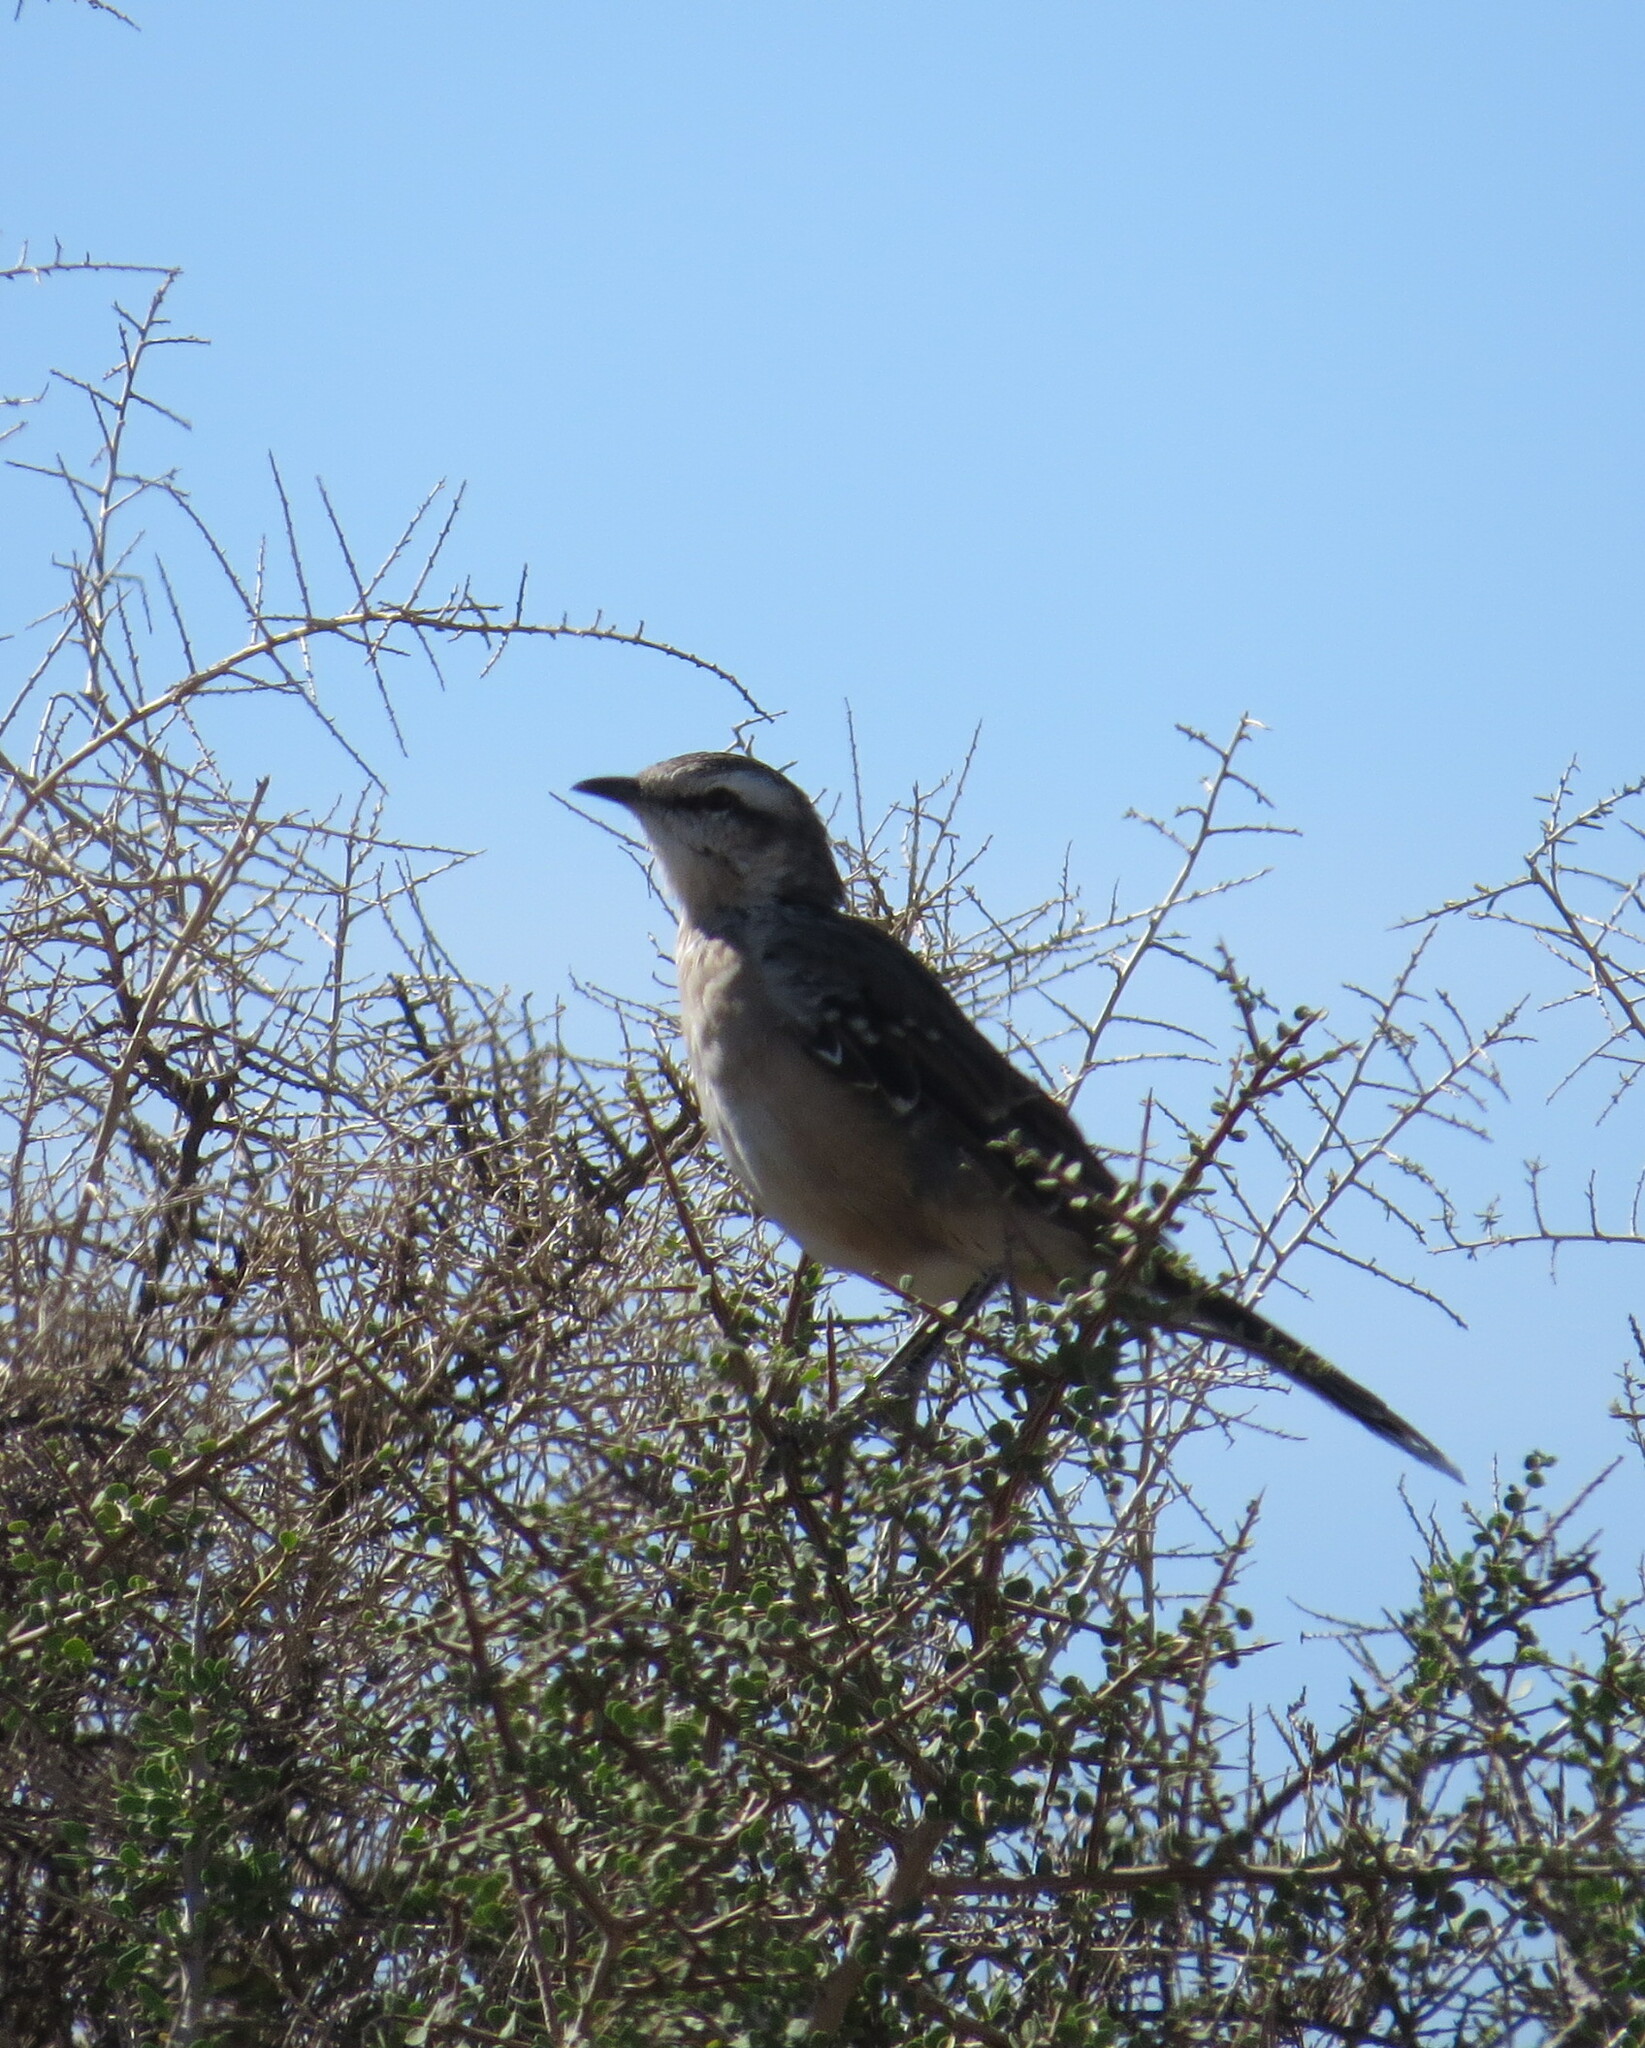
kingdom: Animalia
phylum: Chordata
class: Aves
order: Passeriformes
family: Mimidae
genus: Mimus
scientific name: Mimus patagonicus
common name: Patagonian mockingbird
